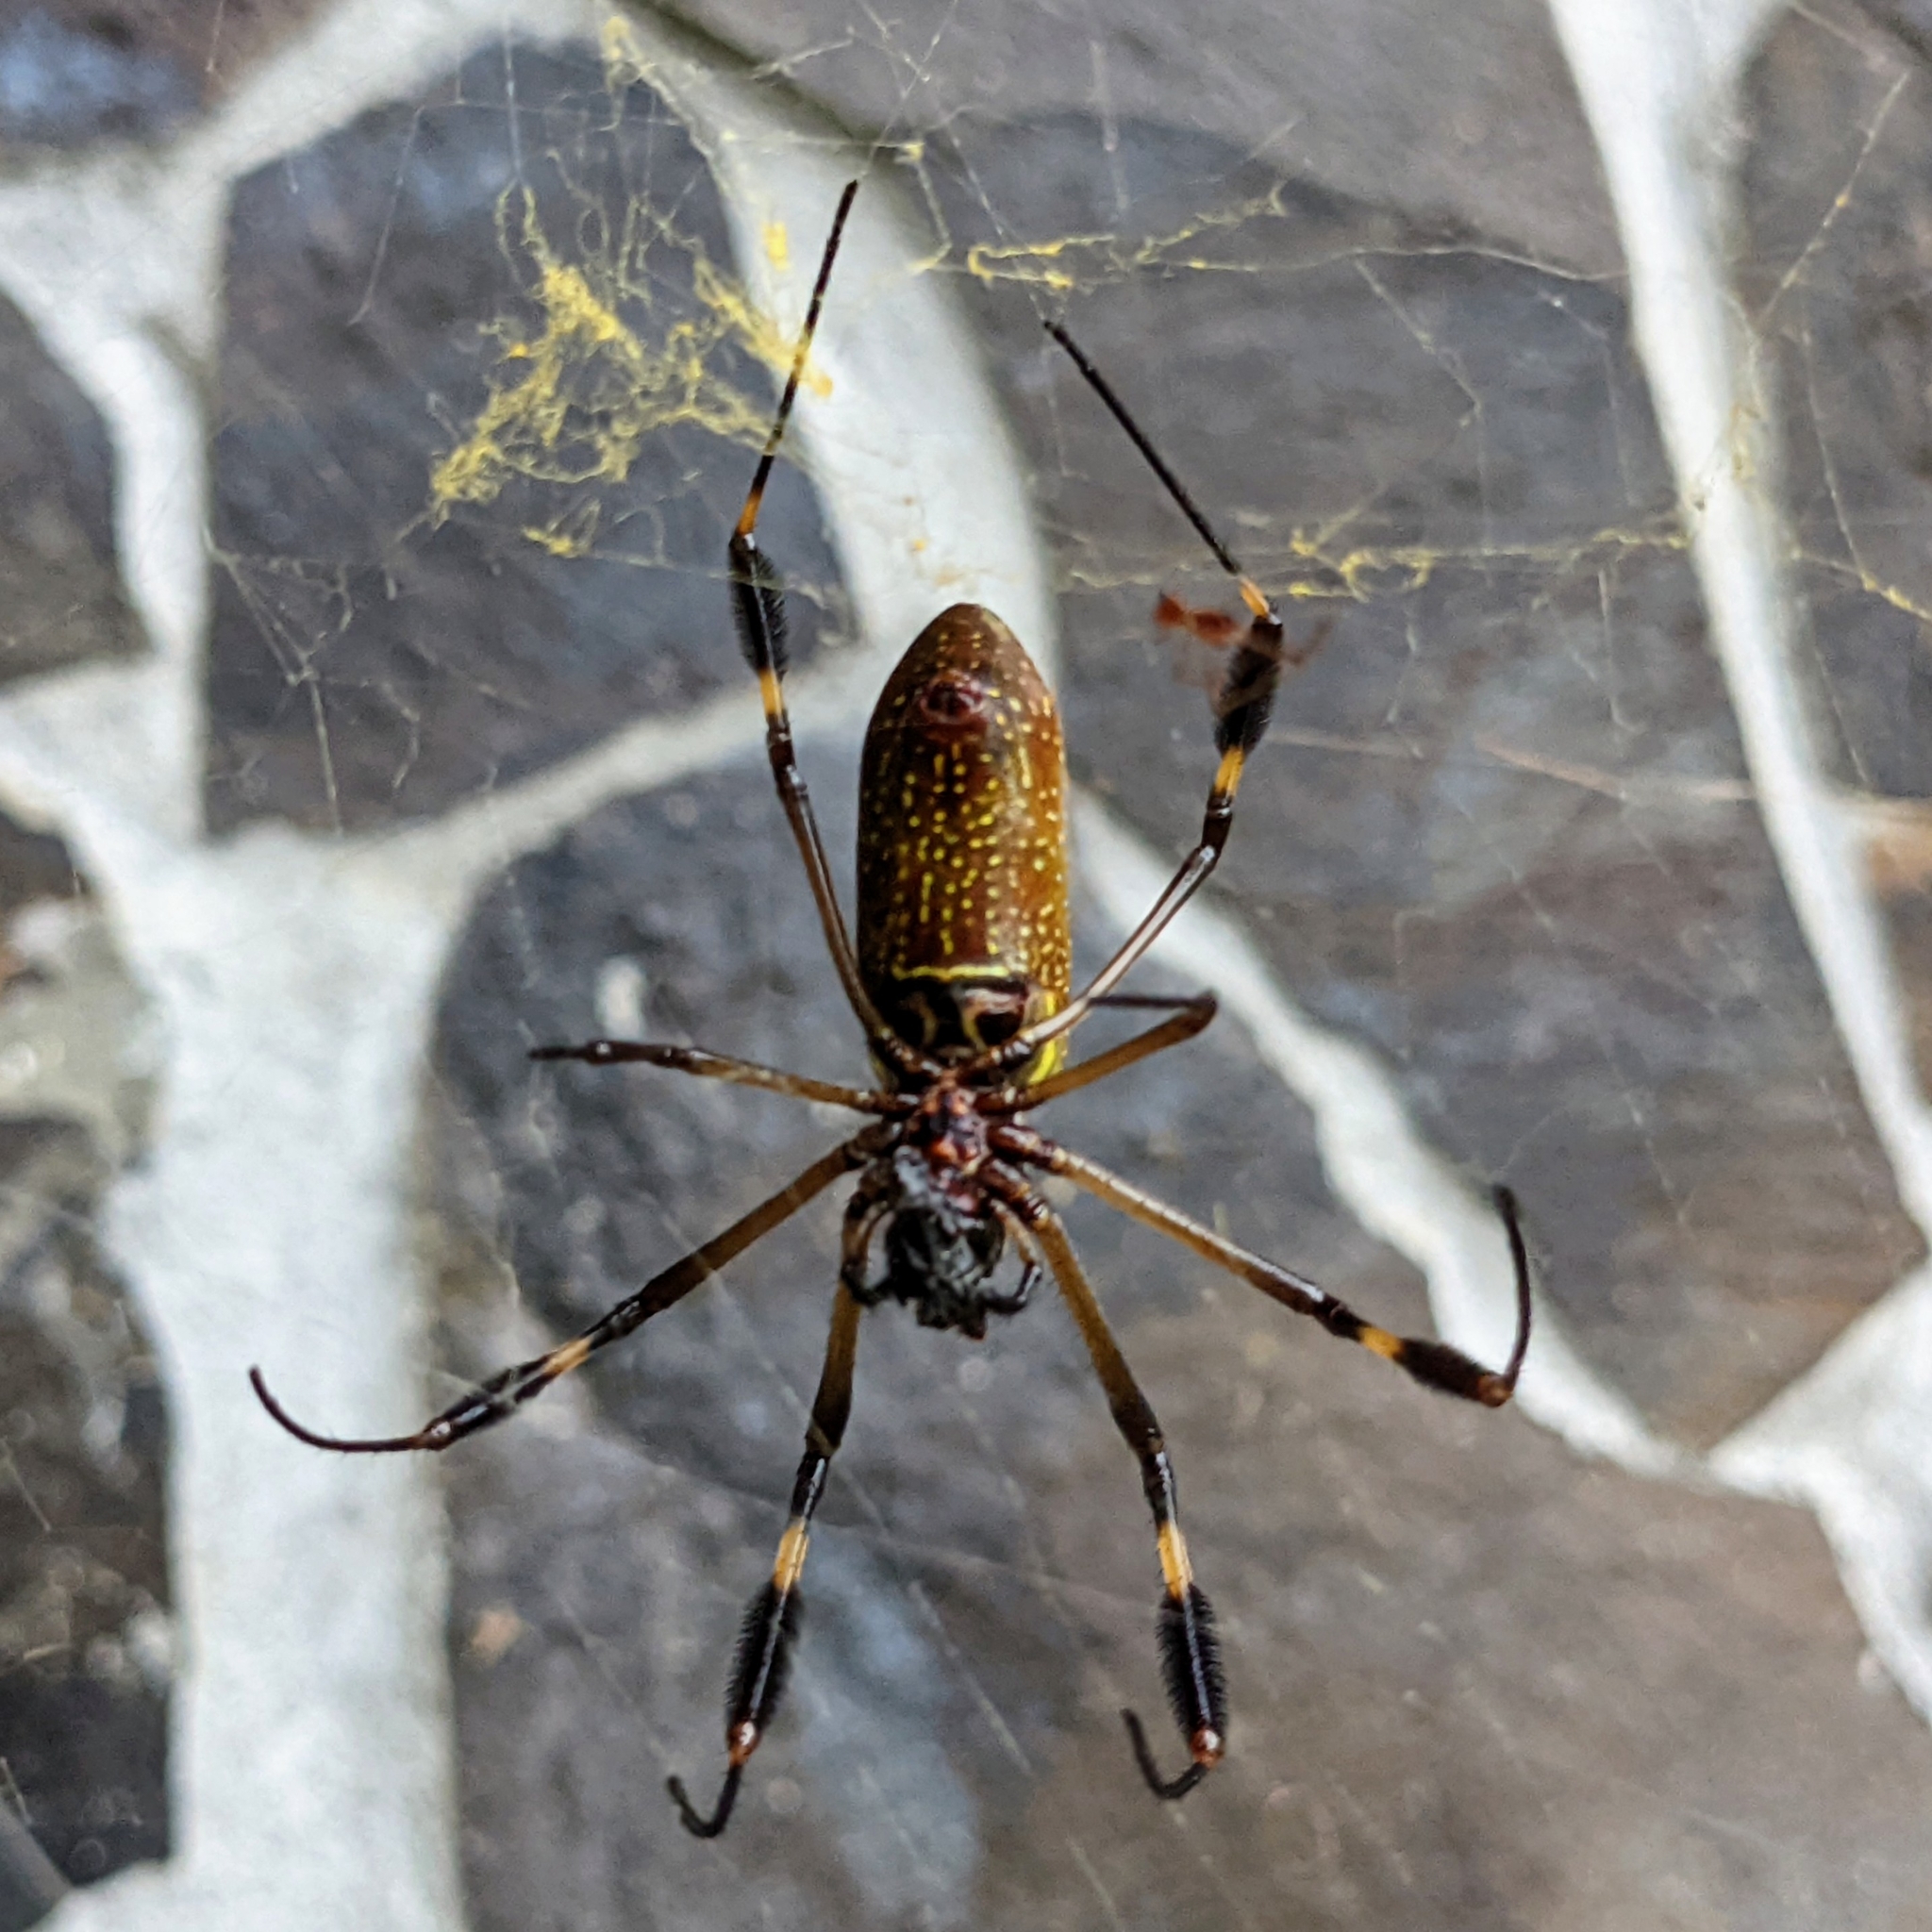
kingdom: Animalia
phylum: Arthropoda
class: Arachnida
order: Araneae
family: Araneidae
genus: Trichonephila
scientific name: Trichonephila clavipes
